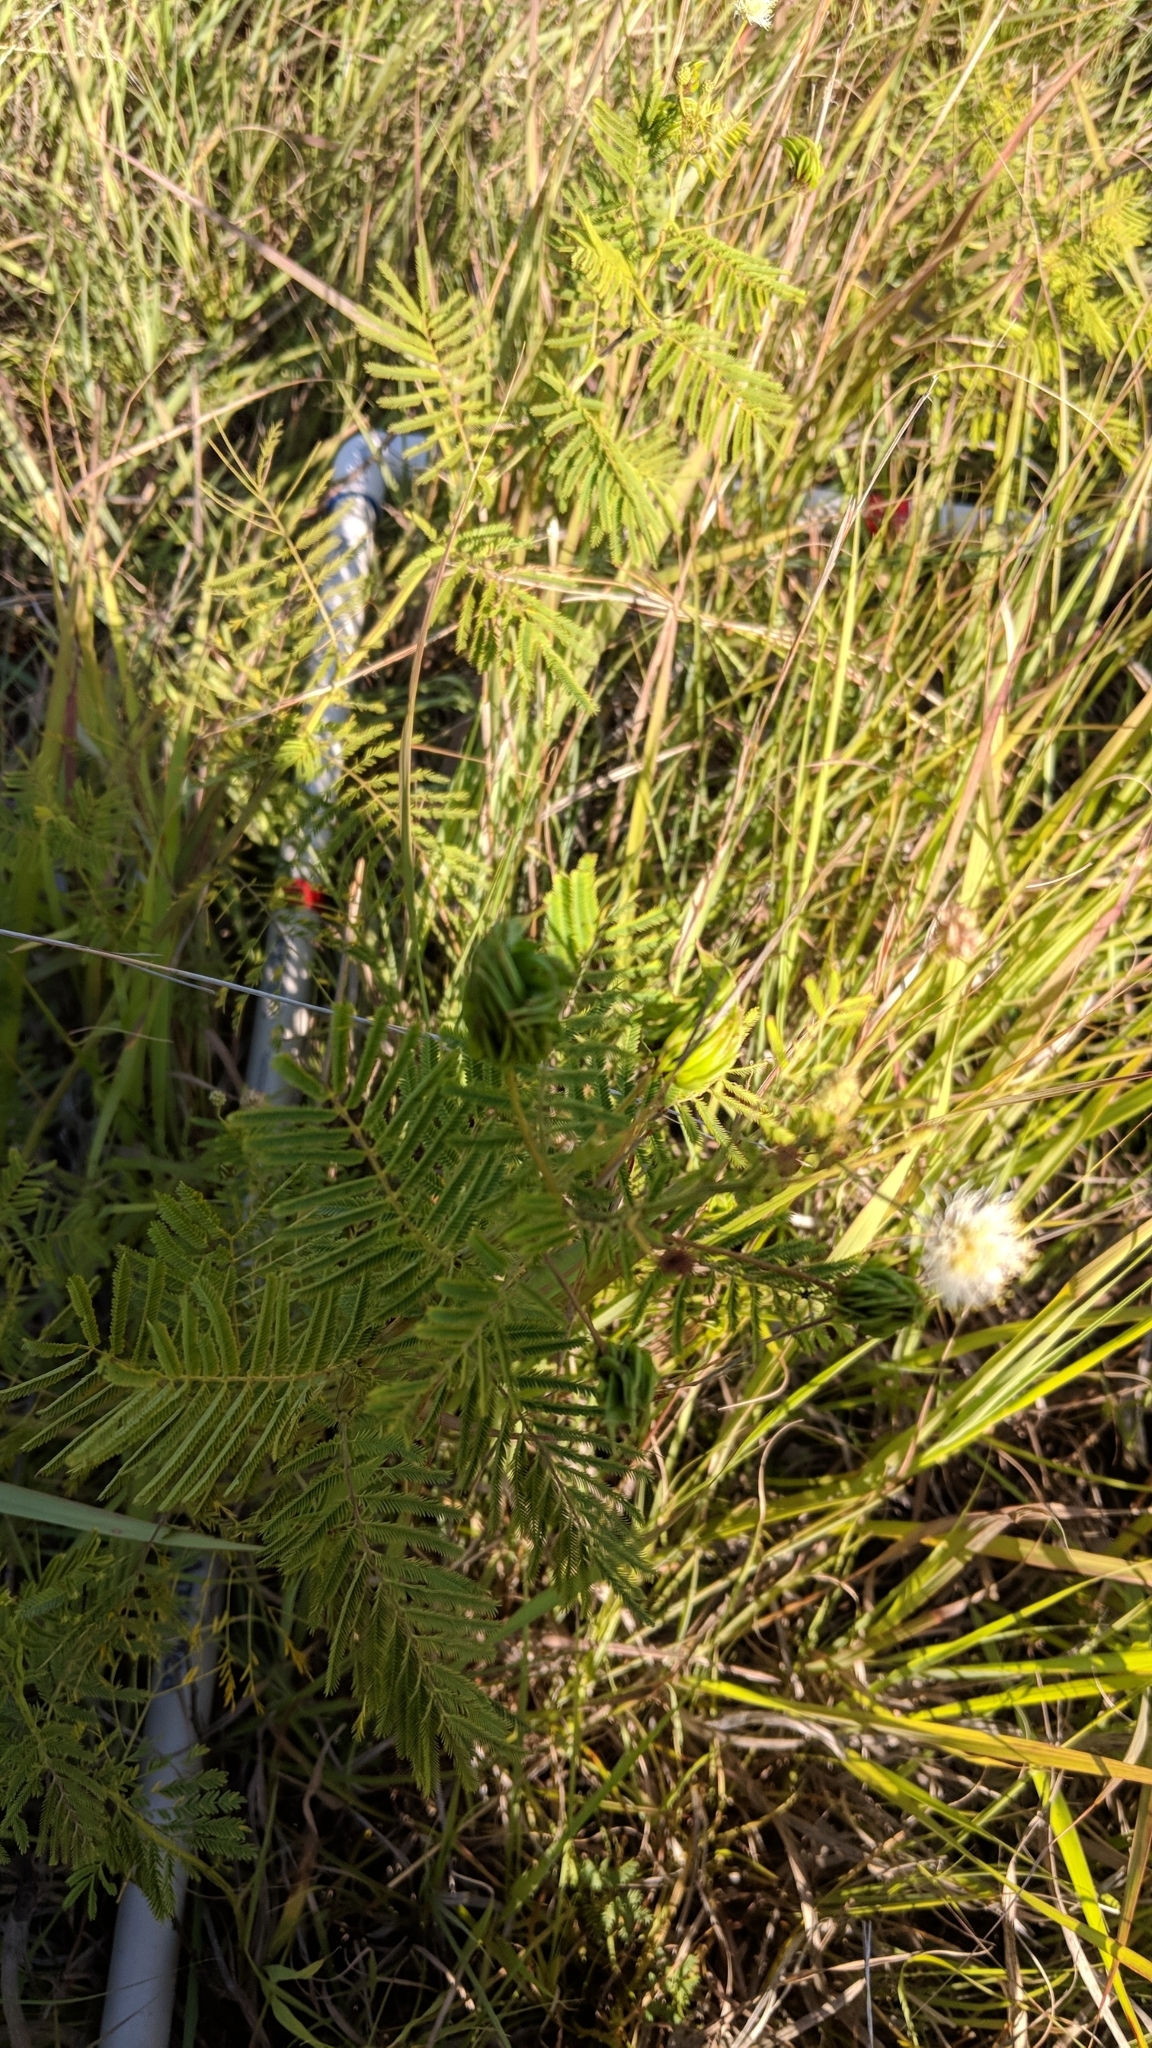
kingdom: Plantae
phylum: Tracheophyta
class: Magnoliopsida
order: Fabales
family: Fabaceae
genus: Desmanthus
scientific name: Desmanthus illinoensis
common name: Illinois bundle-flower
